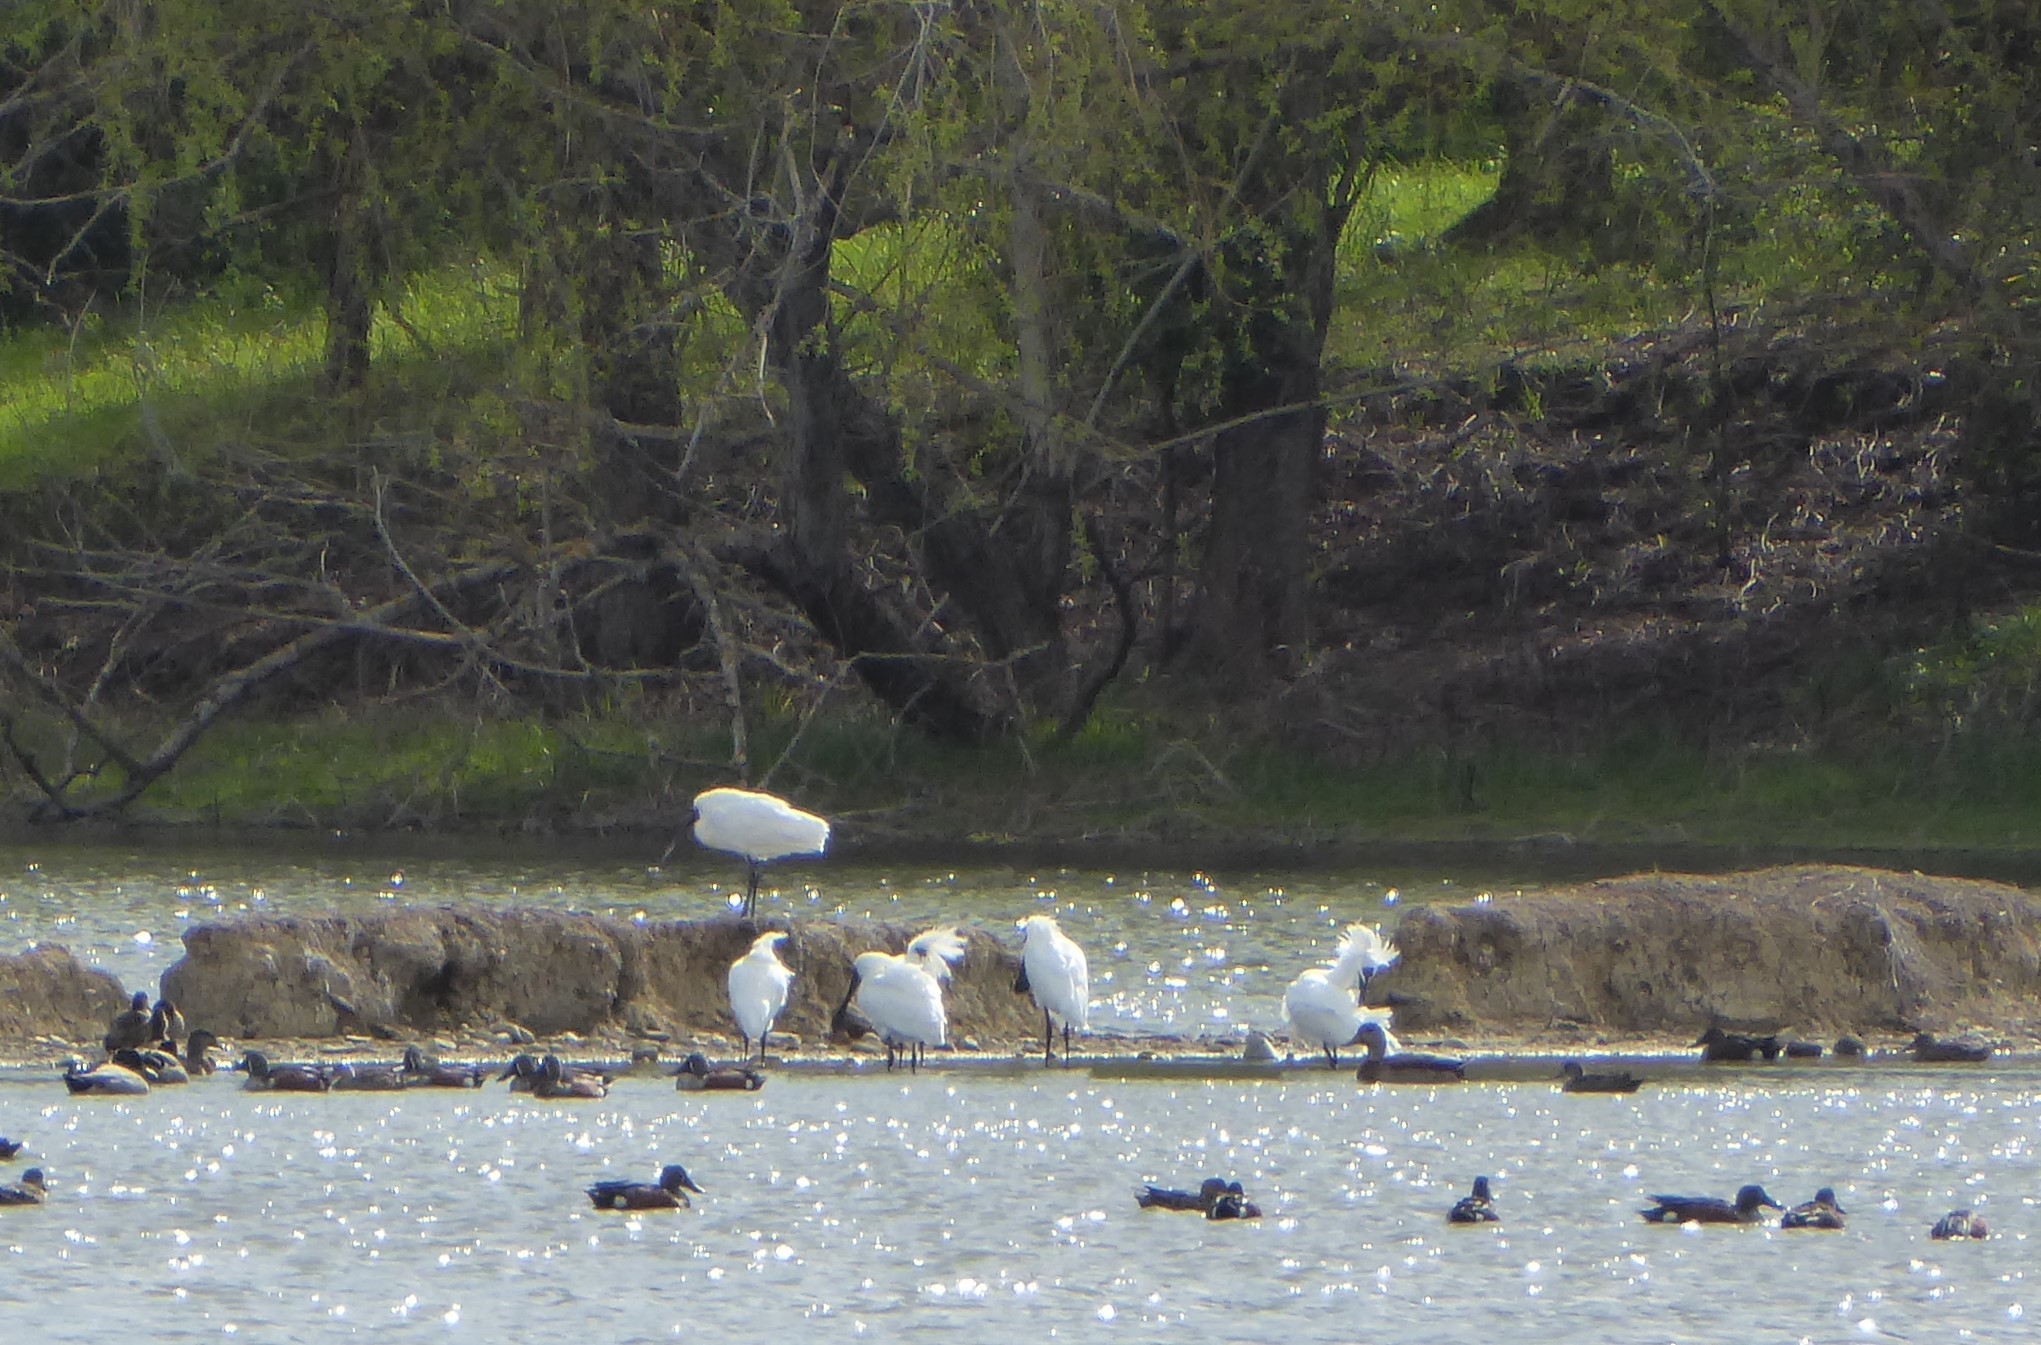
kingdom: Animalia
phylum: Chordata
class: Aves
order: Pelecaniformes
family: Threskiornithidae
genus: Platalea
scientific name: Platalea regia
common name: Royal spoonbill
